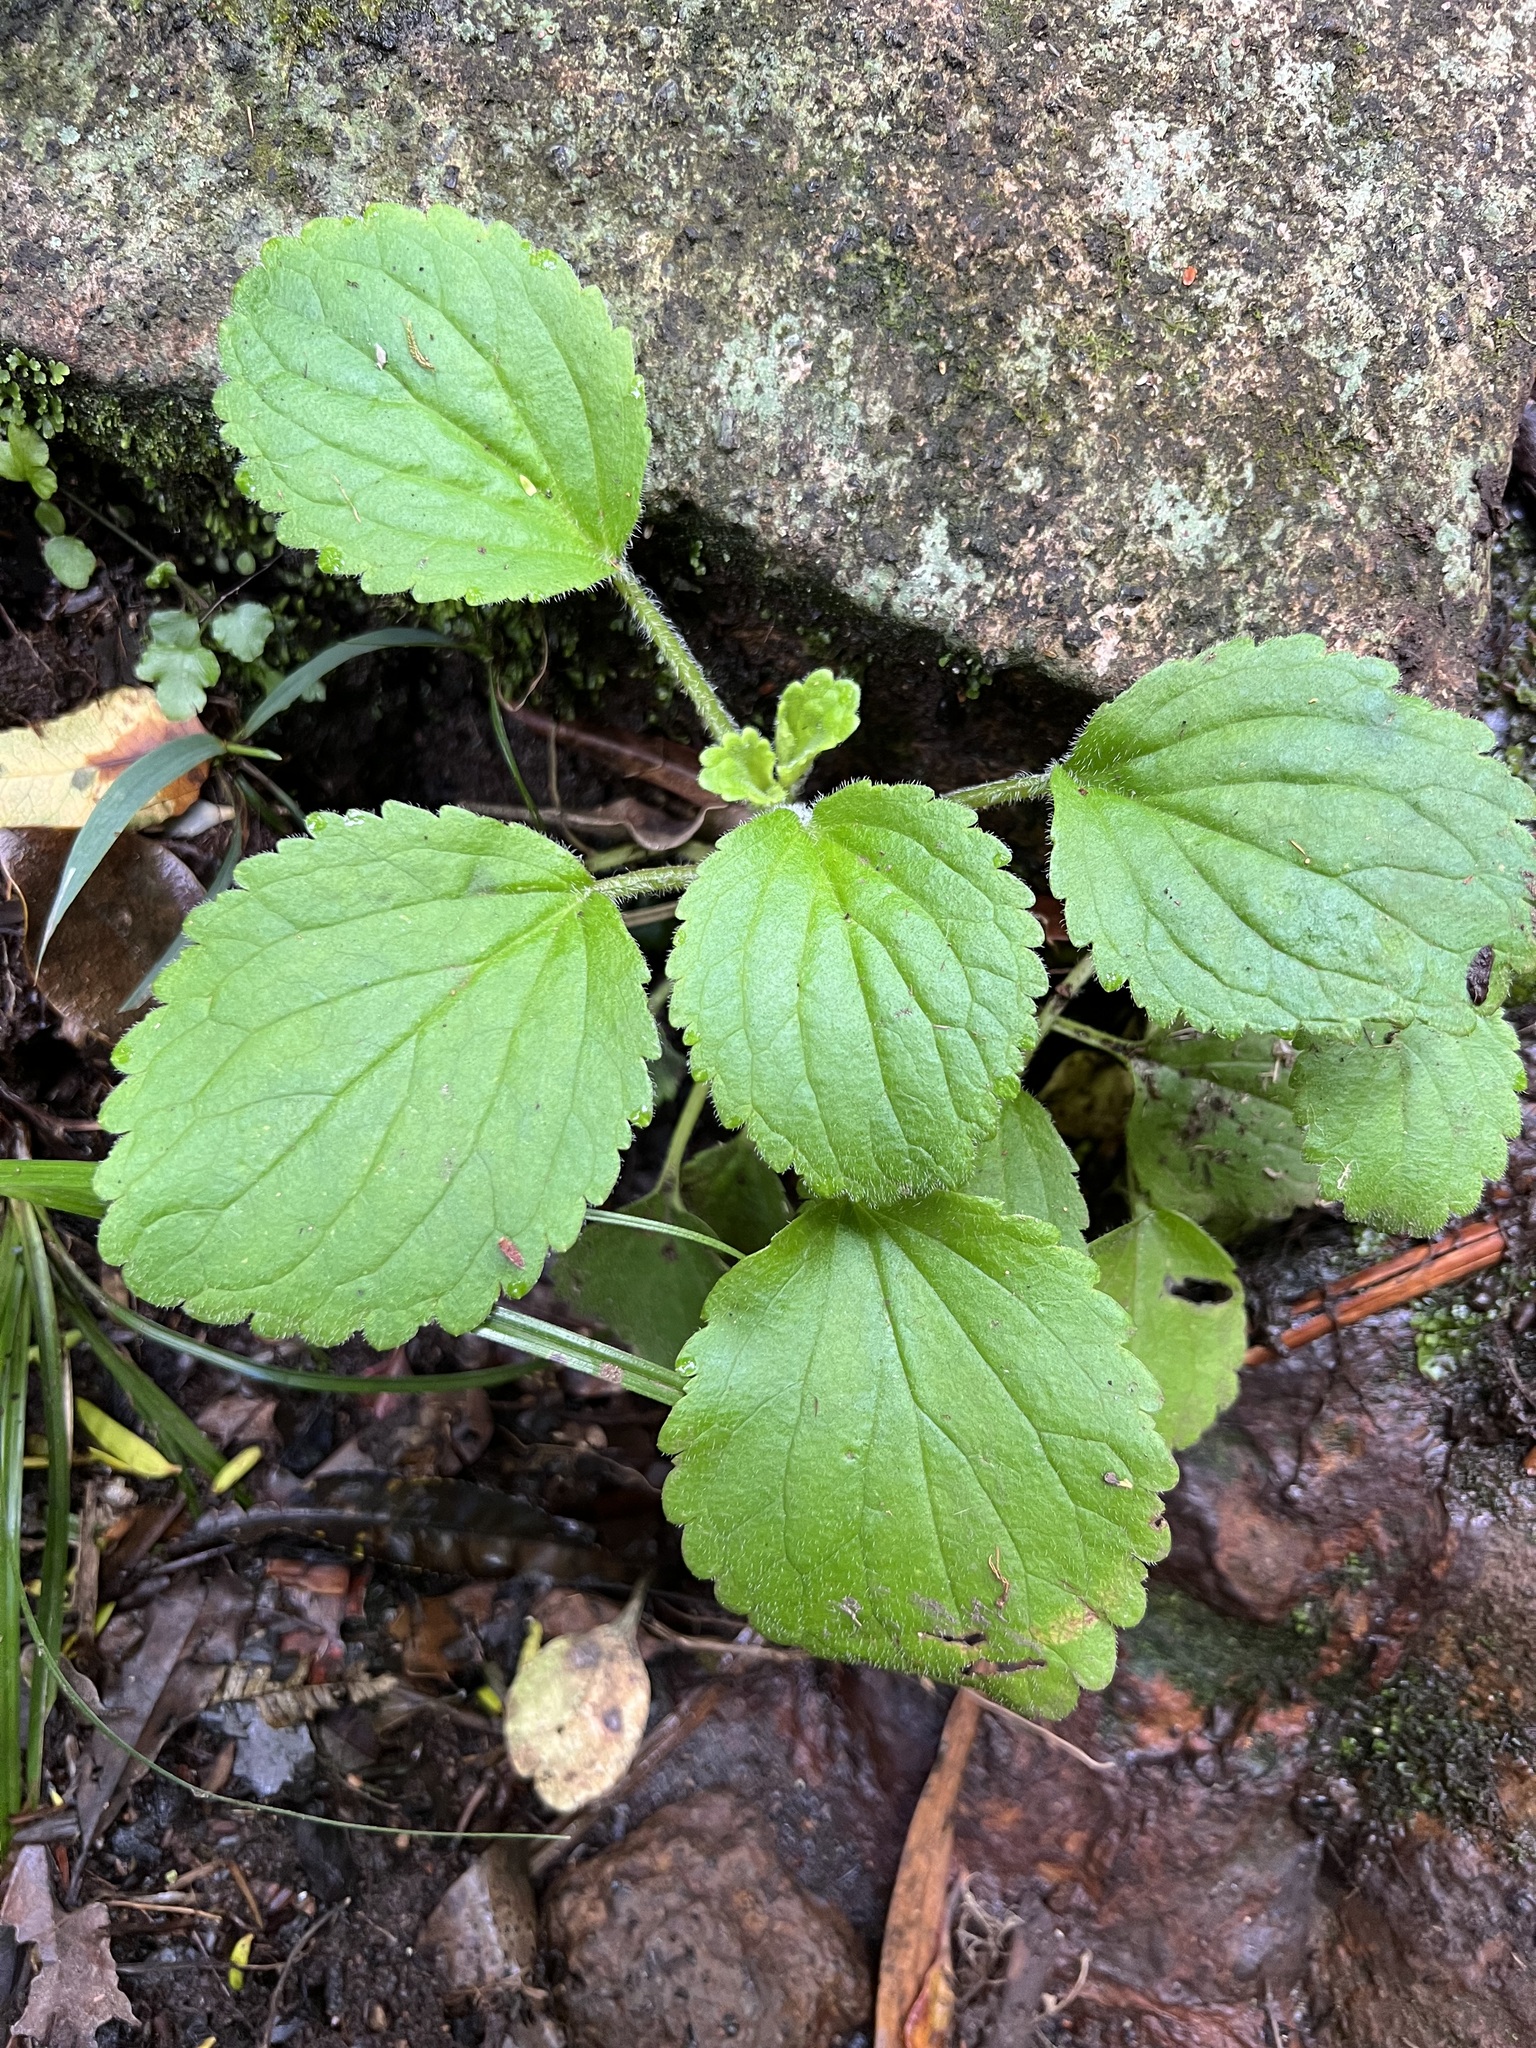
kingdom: Plantae
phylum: Tracheophyta
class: Magnoliopsida
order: Lamiales
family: Plantaginaceae
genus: Ourisia
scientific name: Ourisia macrophylla
